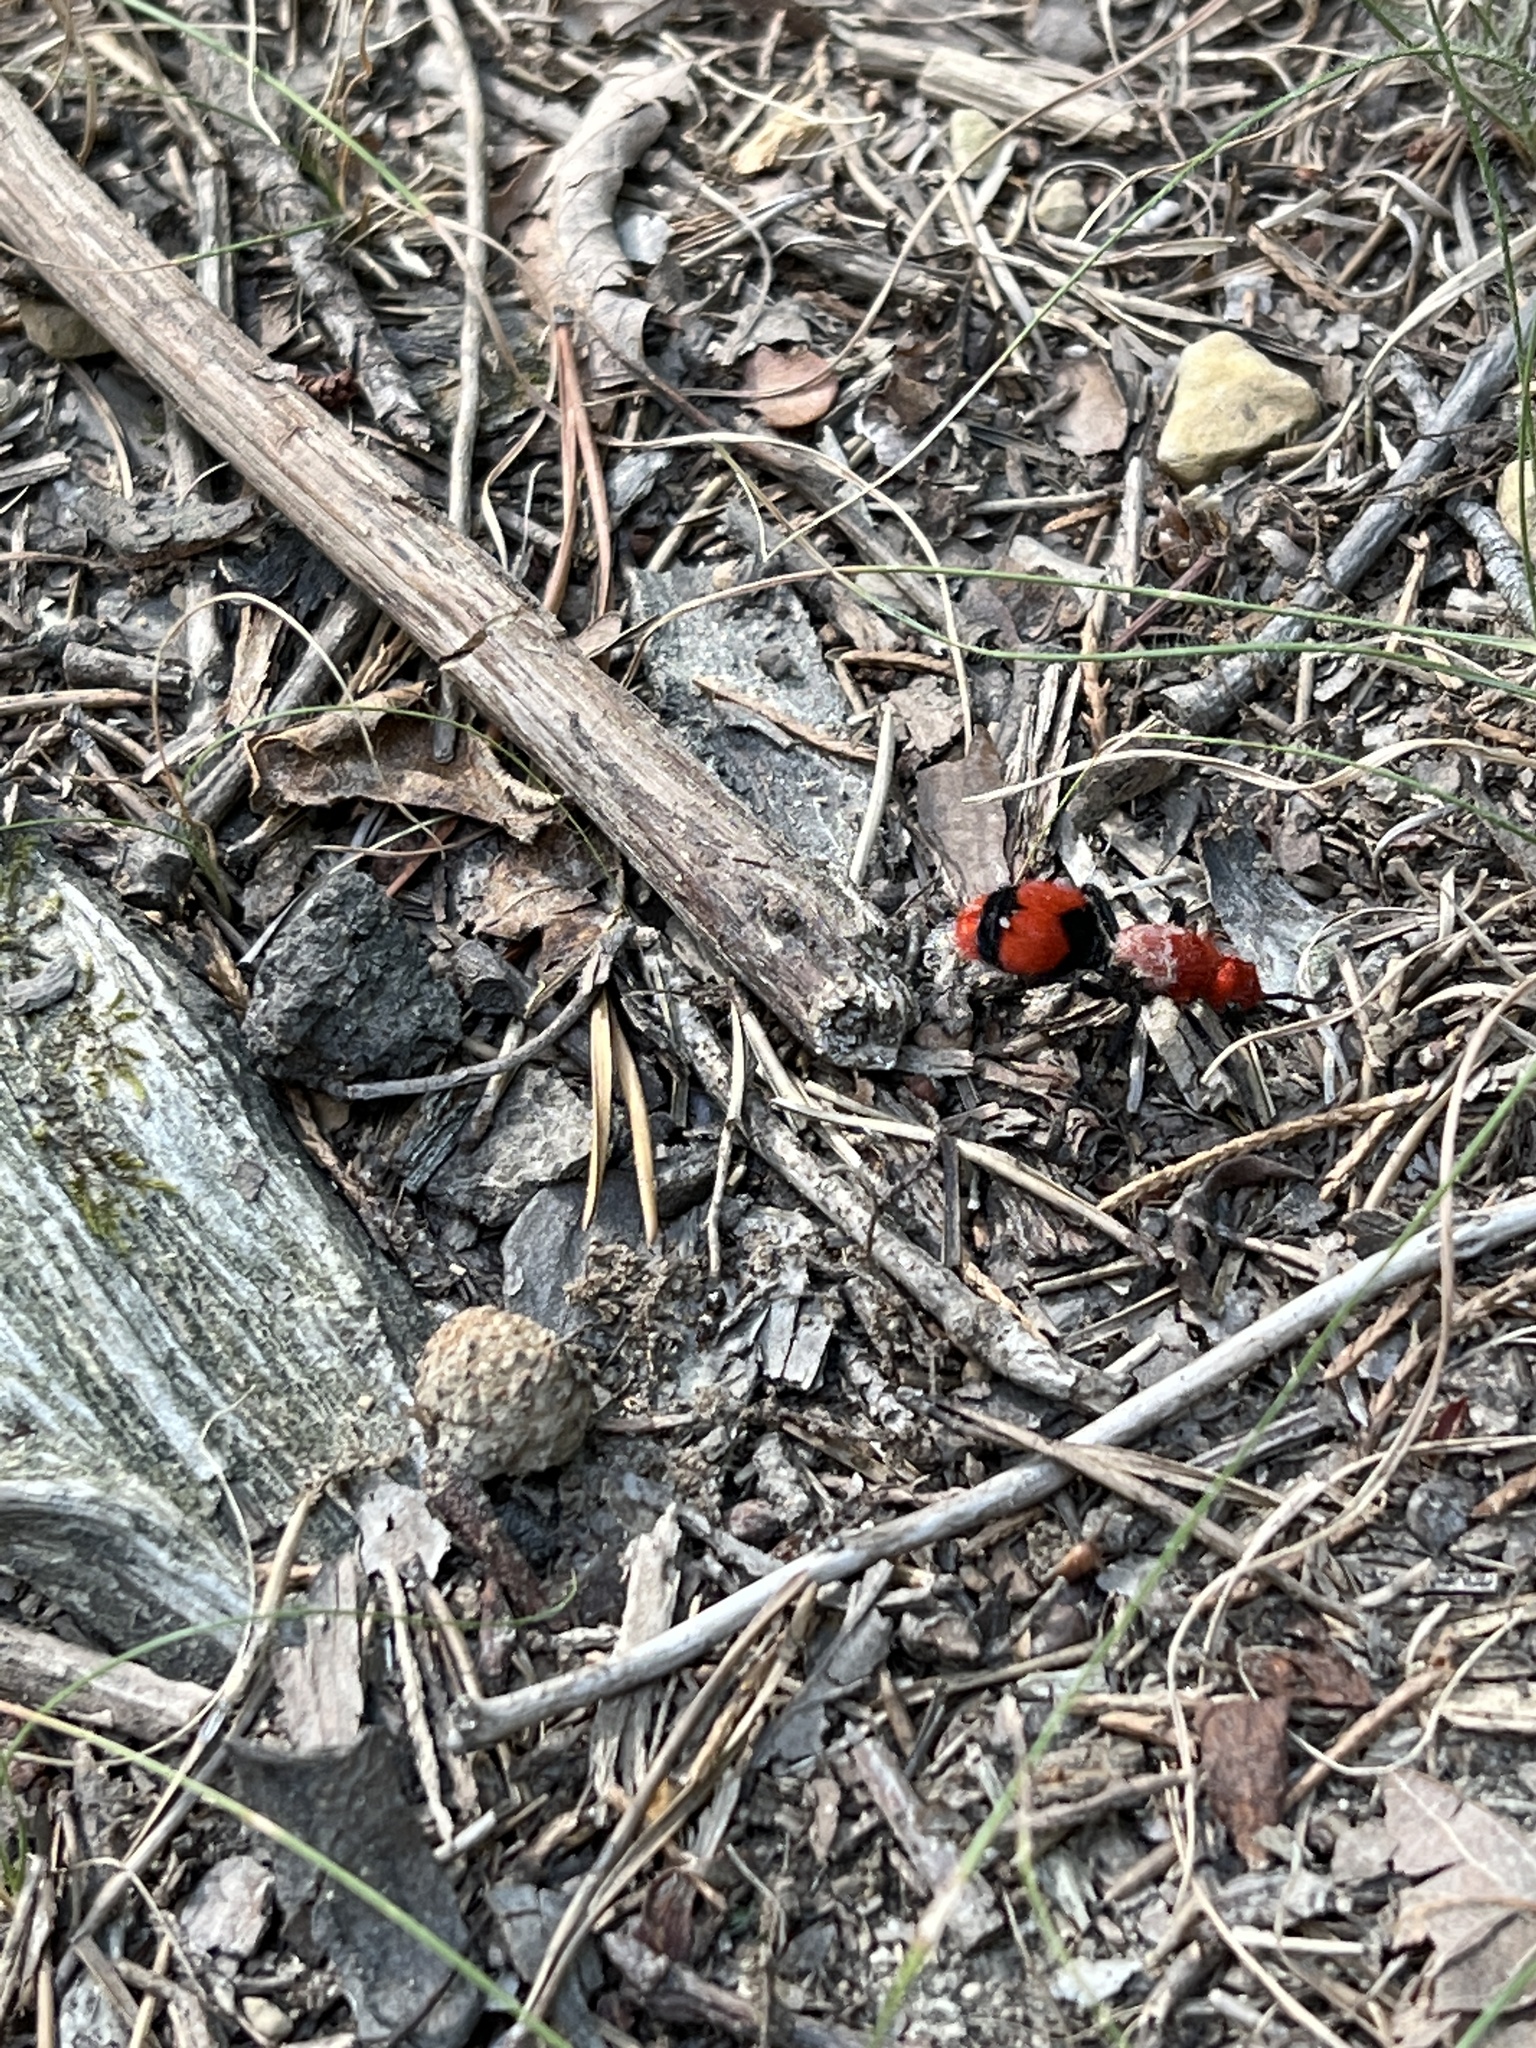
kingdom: Animalia
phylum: Arthropoda
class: Insecta
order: Hymenoptera
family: Mutillidae
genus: Dasymutilla
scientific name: Dasymutilla occidentalis
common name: Common eastern velvet ant
